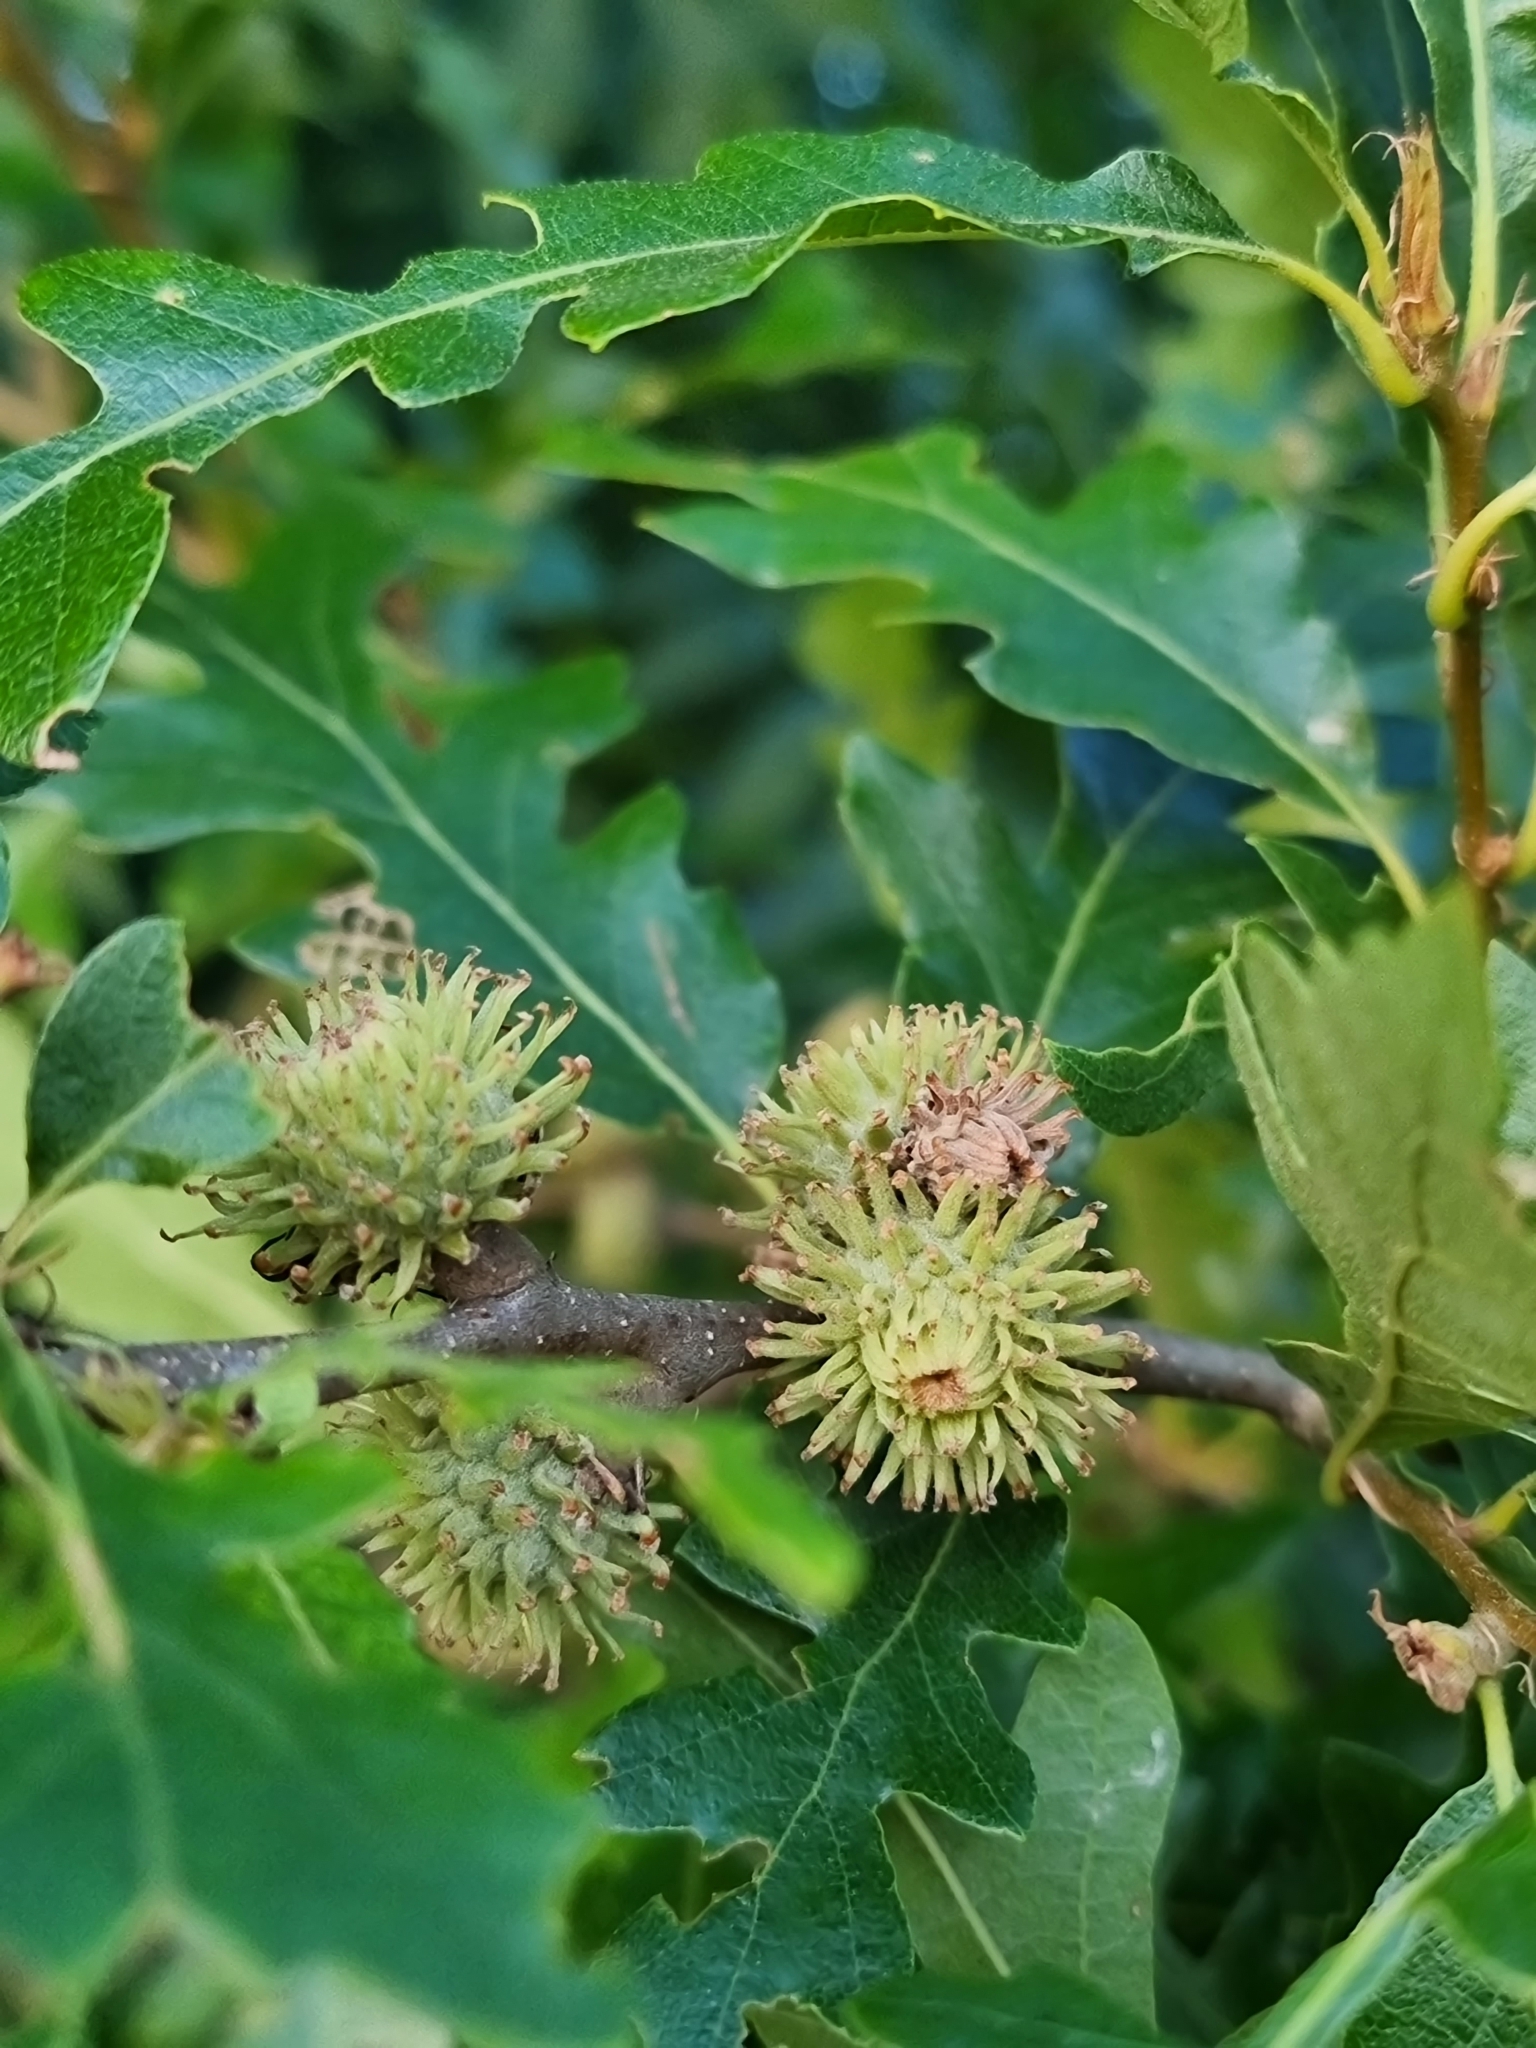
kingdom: Plantae
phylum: Tracheophyta
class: Magnoliopsida
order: Fagales
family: Fagaceae
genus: Quercus
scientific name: Quercus cerris
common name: Turkey oak
